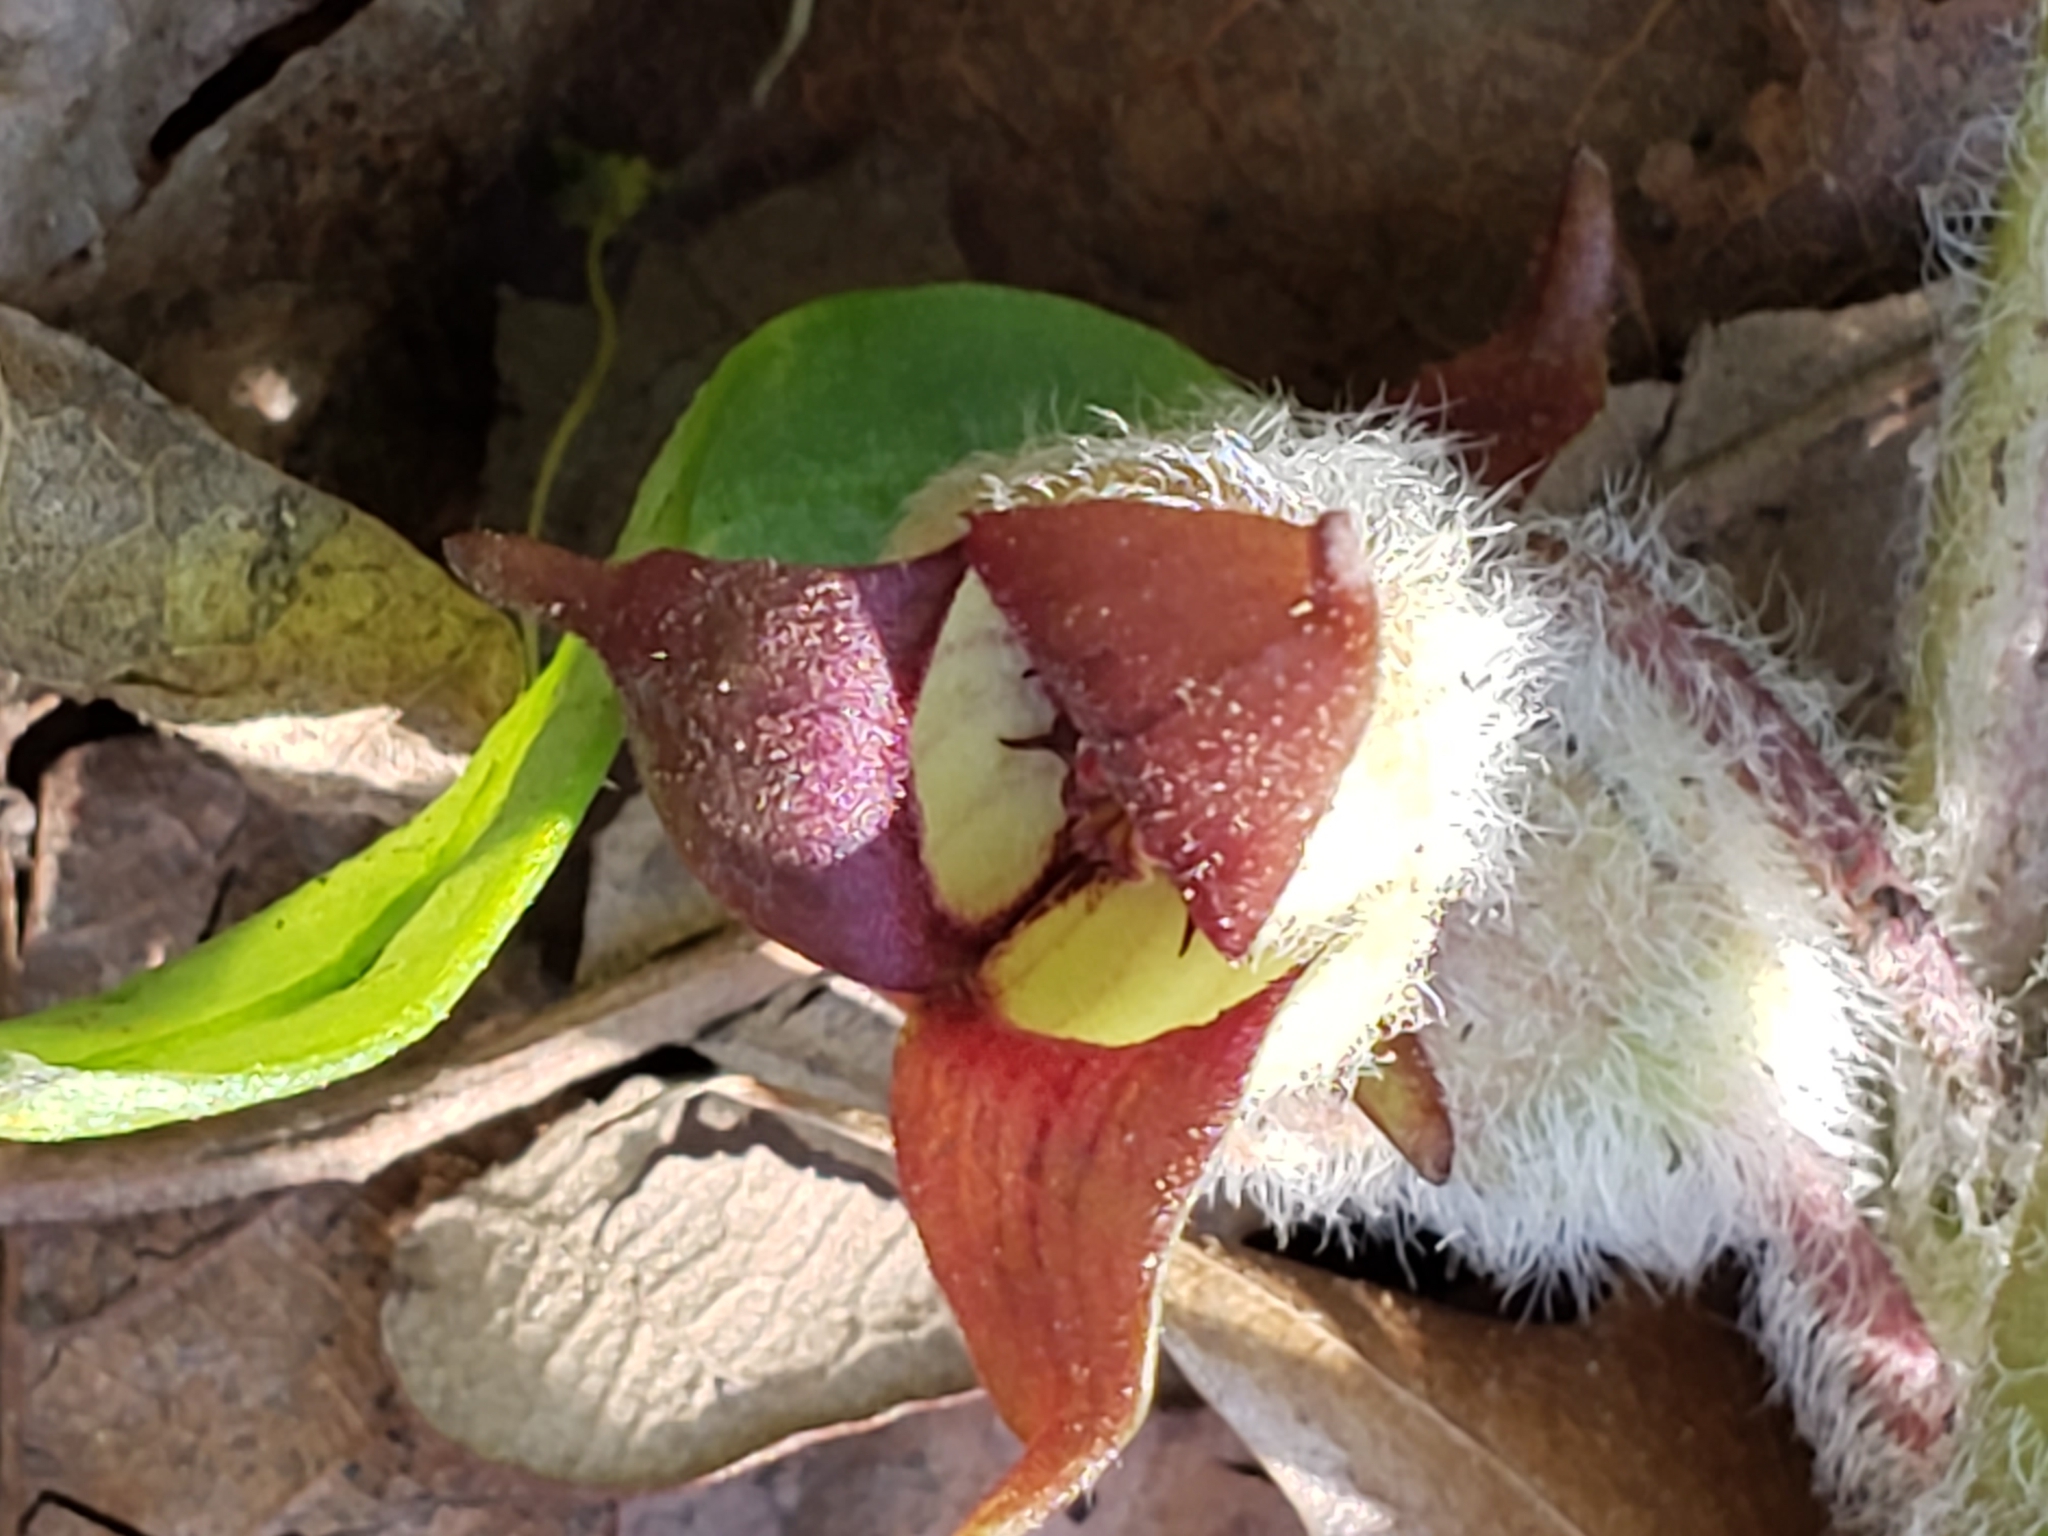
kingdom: Plantae
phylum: Tracheophyta
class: Magnoliopsida
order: Piperales
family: Aristolochiaceae
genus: Asarum
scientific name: Asarum canadense
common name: Wild ginger
